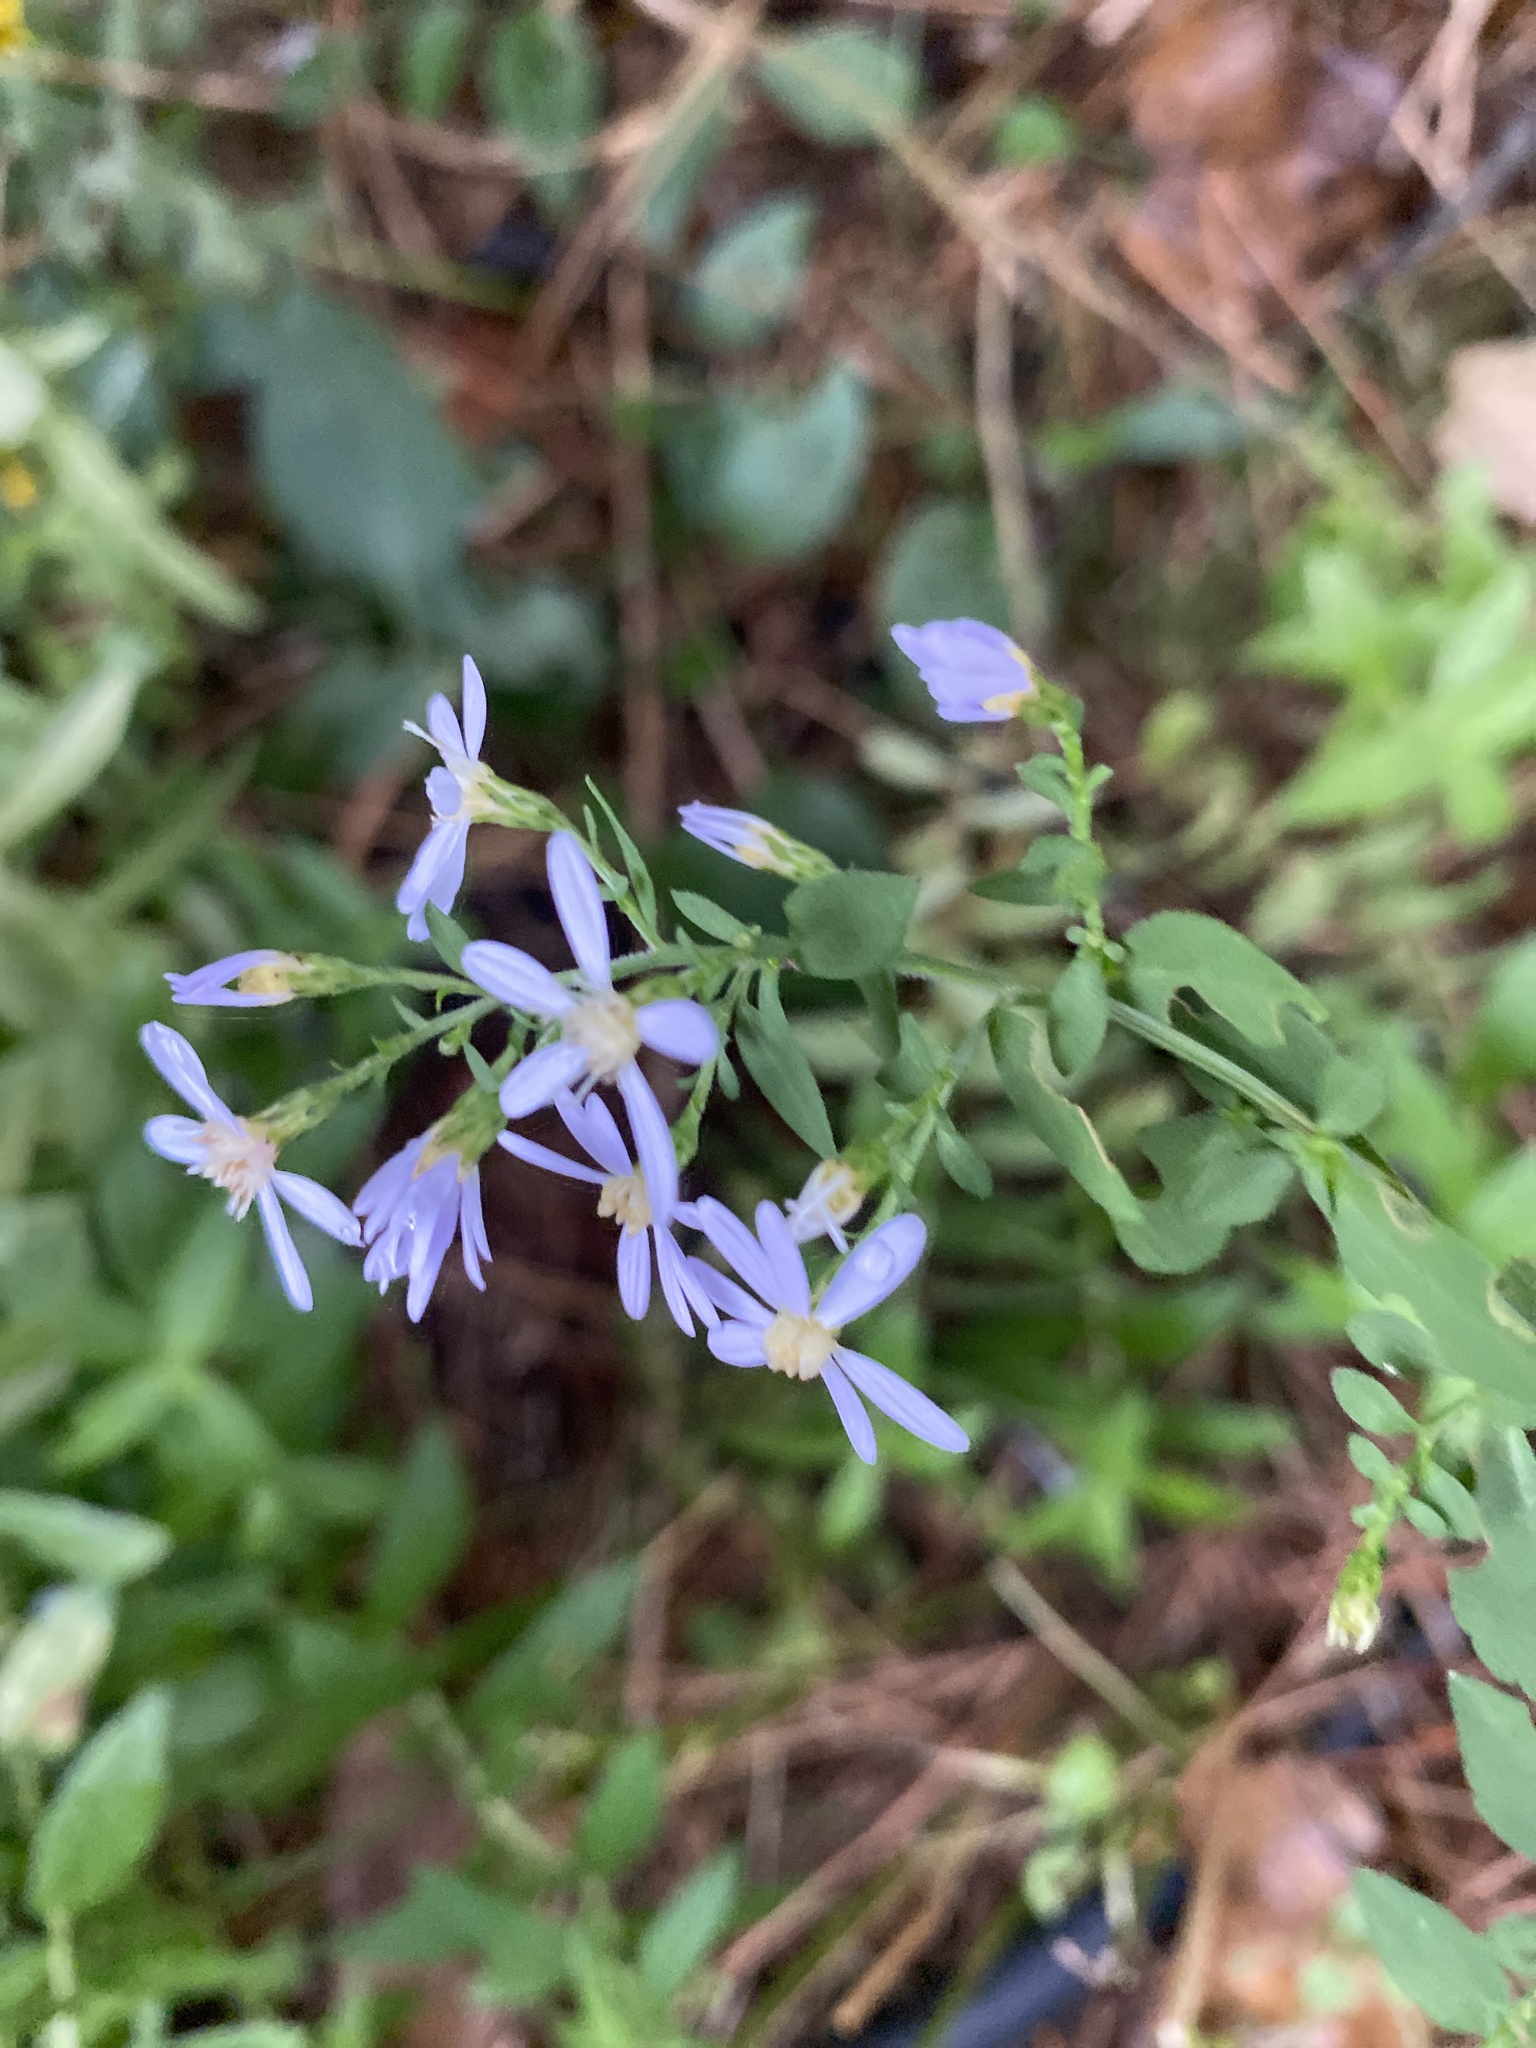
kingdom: Plantae
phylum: Tracheophyta
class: Magnoliopsida
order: Asterales
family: Asteraceae
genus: Symphyotrichum
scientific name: Symphyotrichum cordifolium
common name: Beeweed
